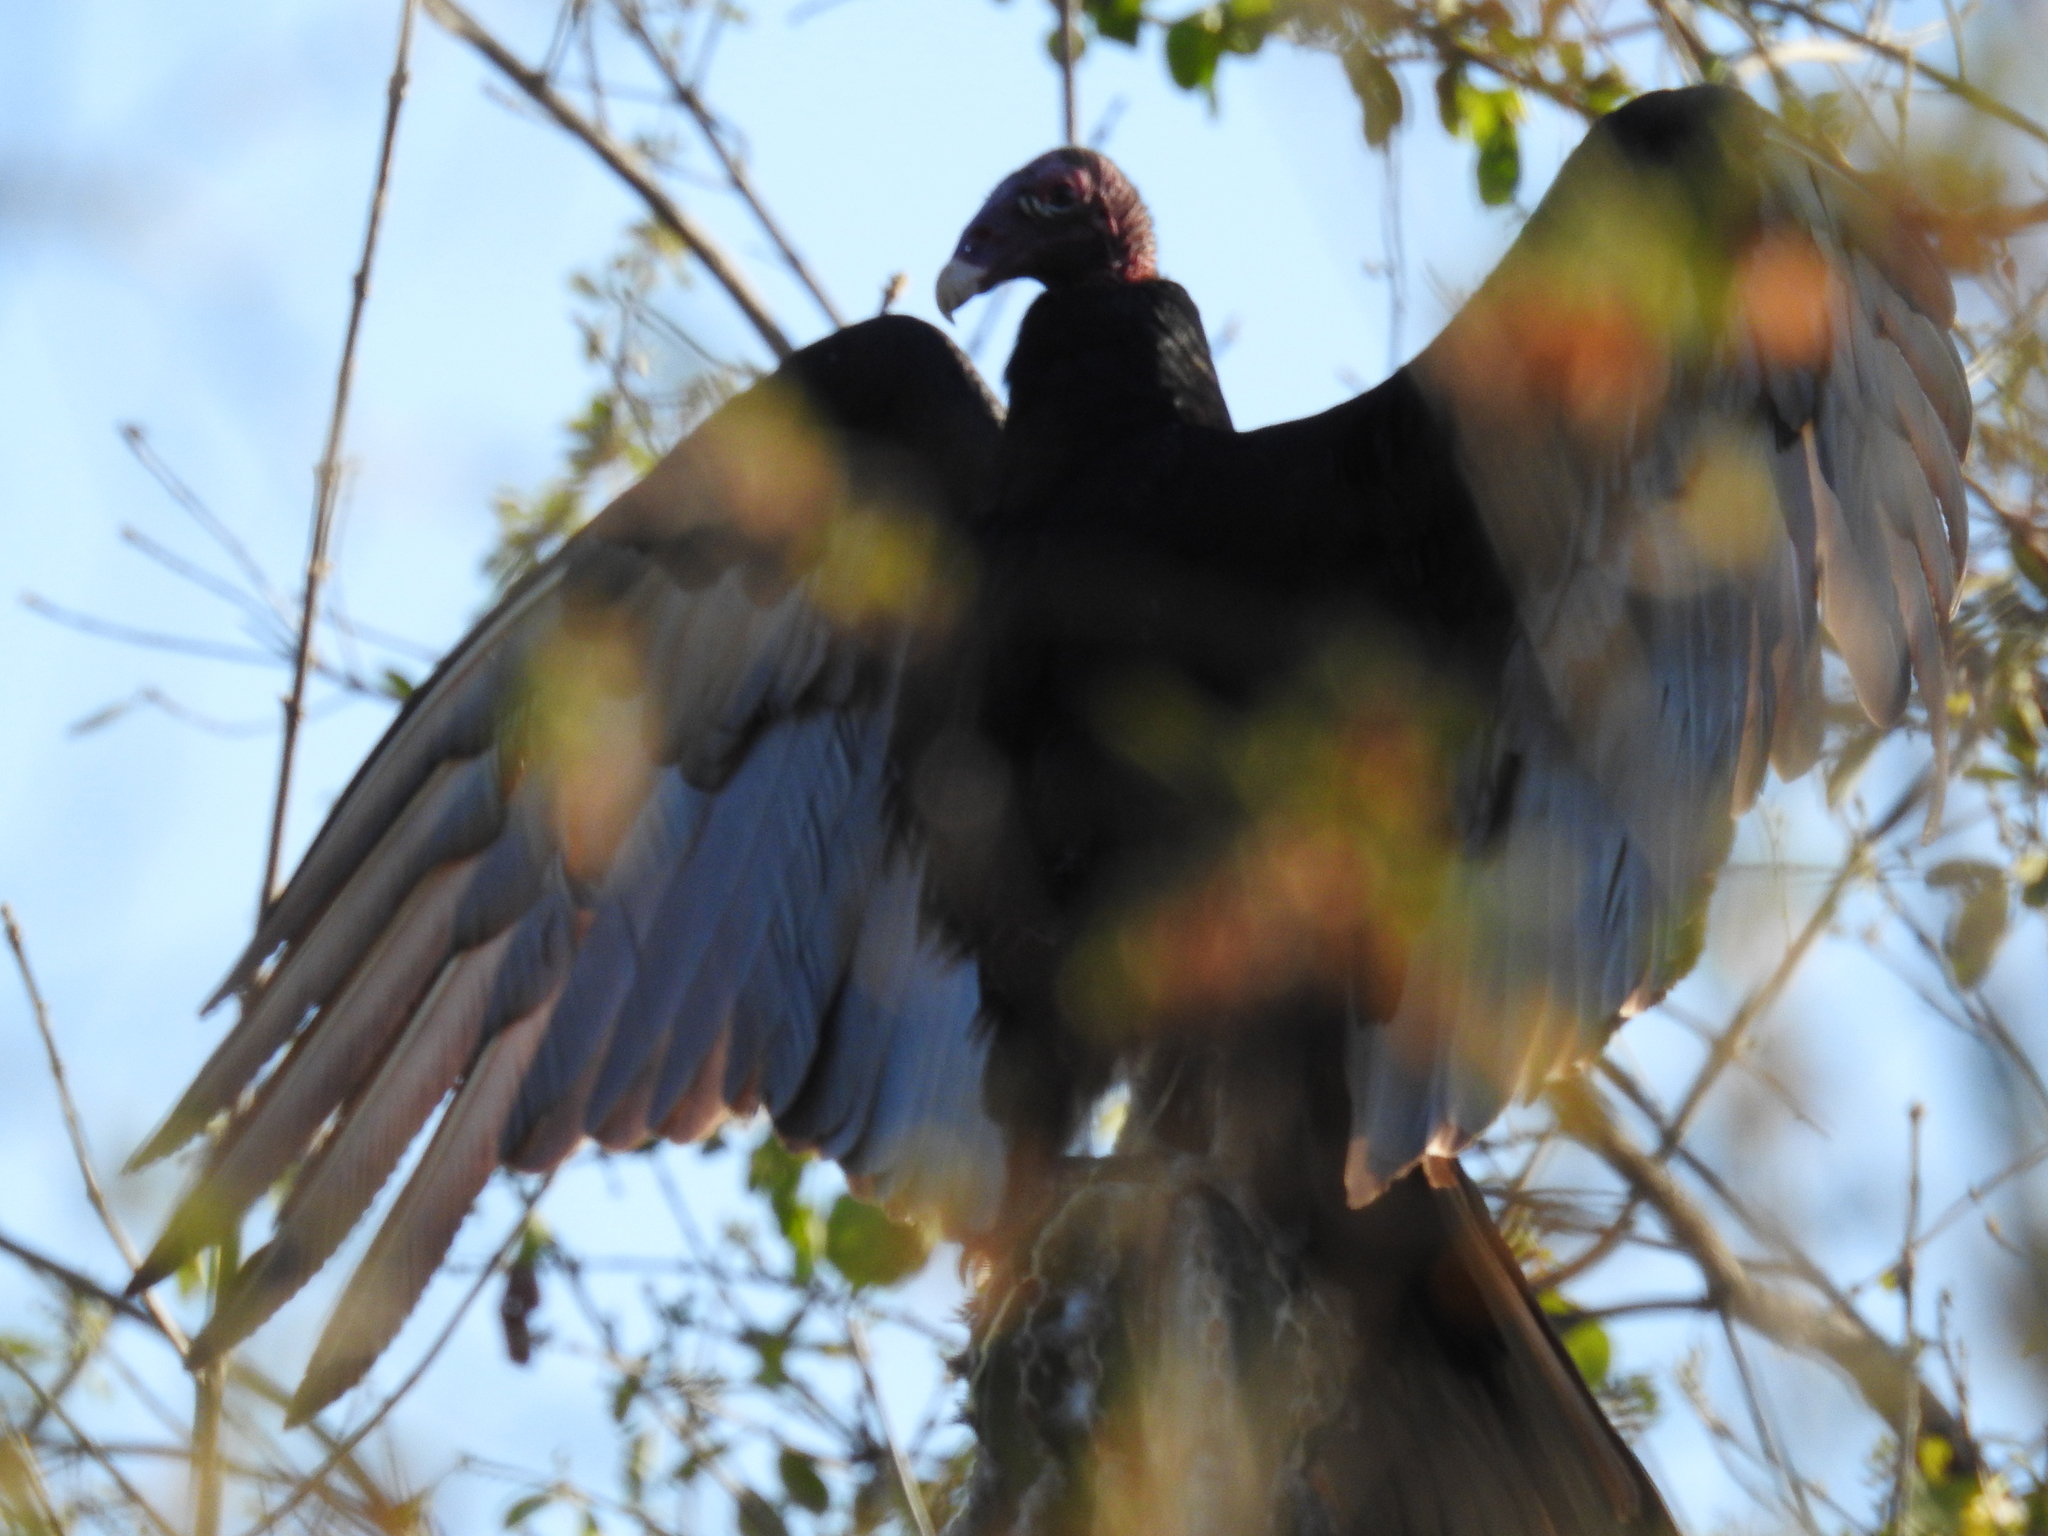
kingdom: Animalia
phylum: Chordata
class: Aves
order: Accipitriformes
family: Cathartidae
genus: Cathartes
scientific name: Cathartes aura
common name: Turkey vulture
